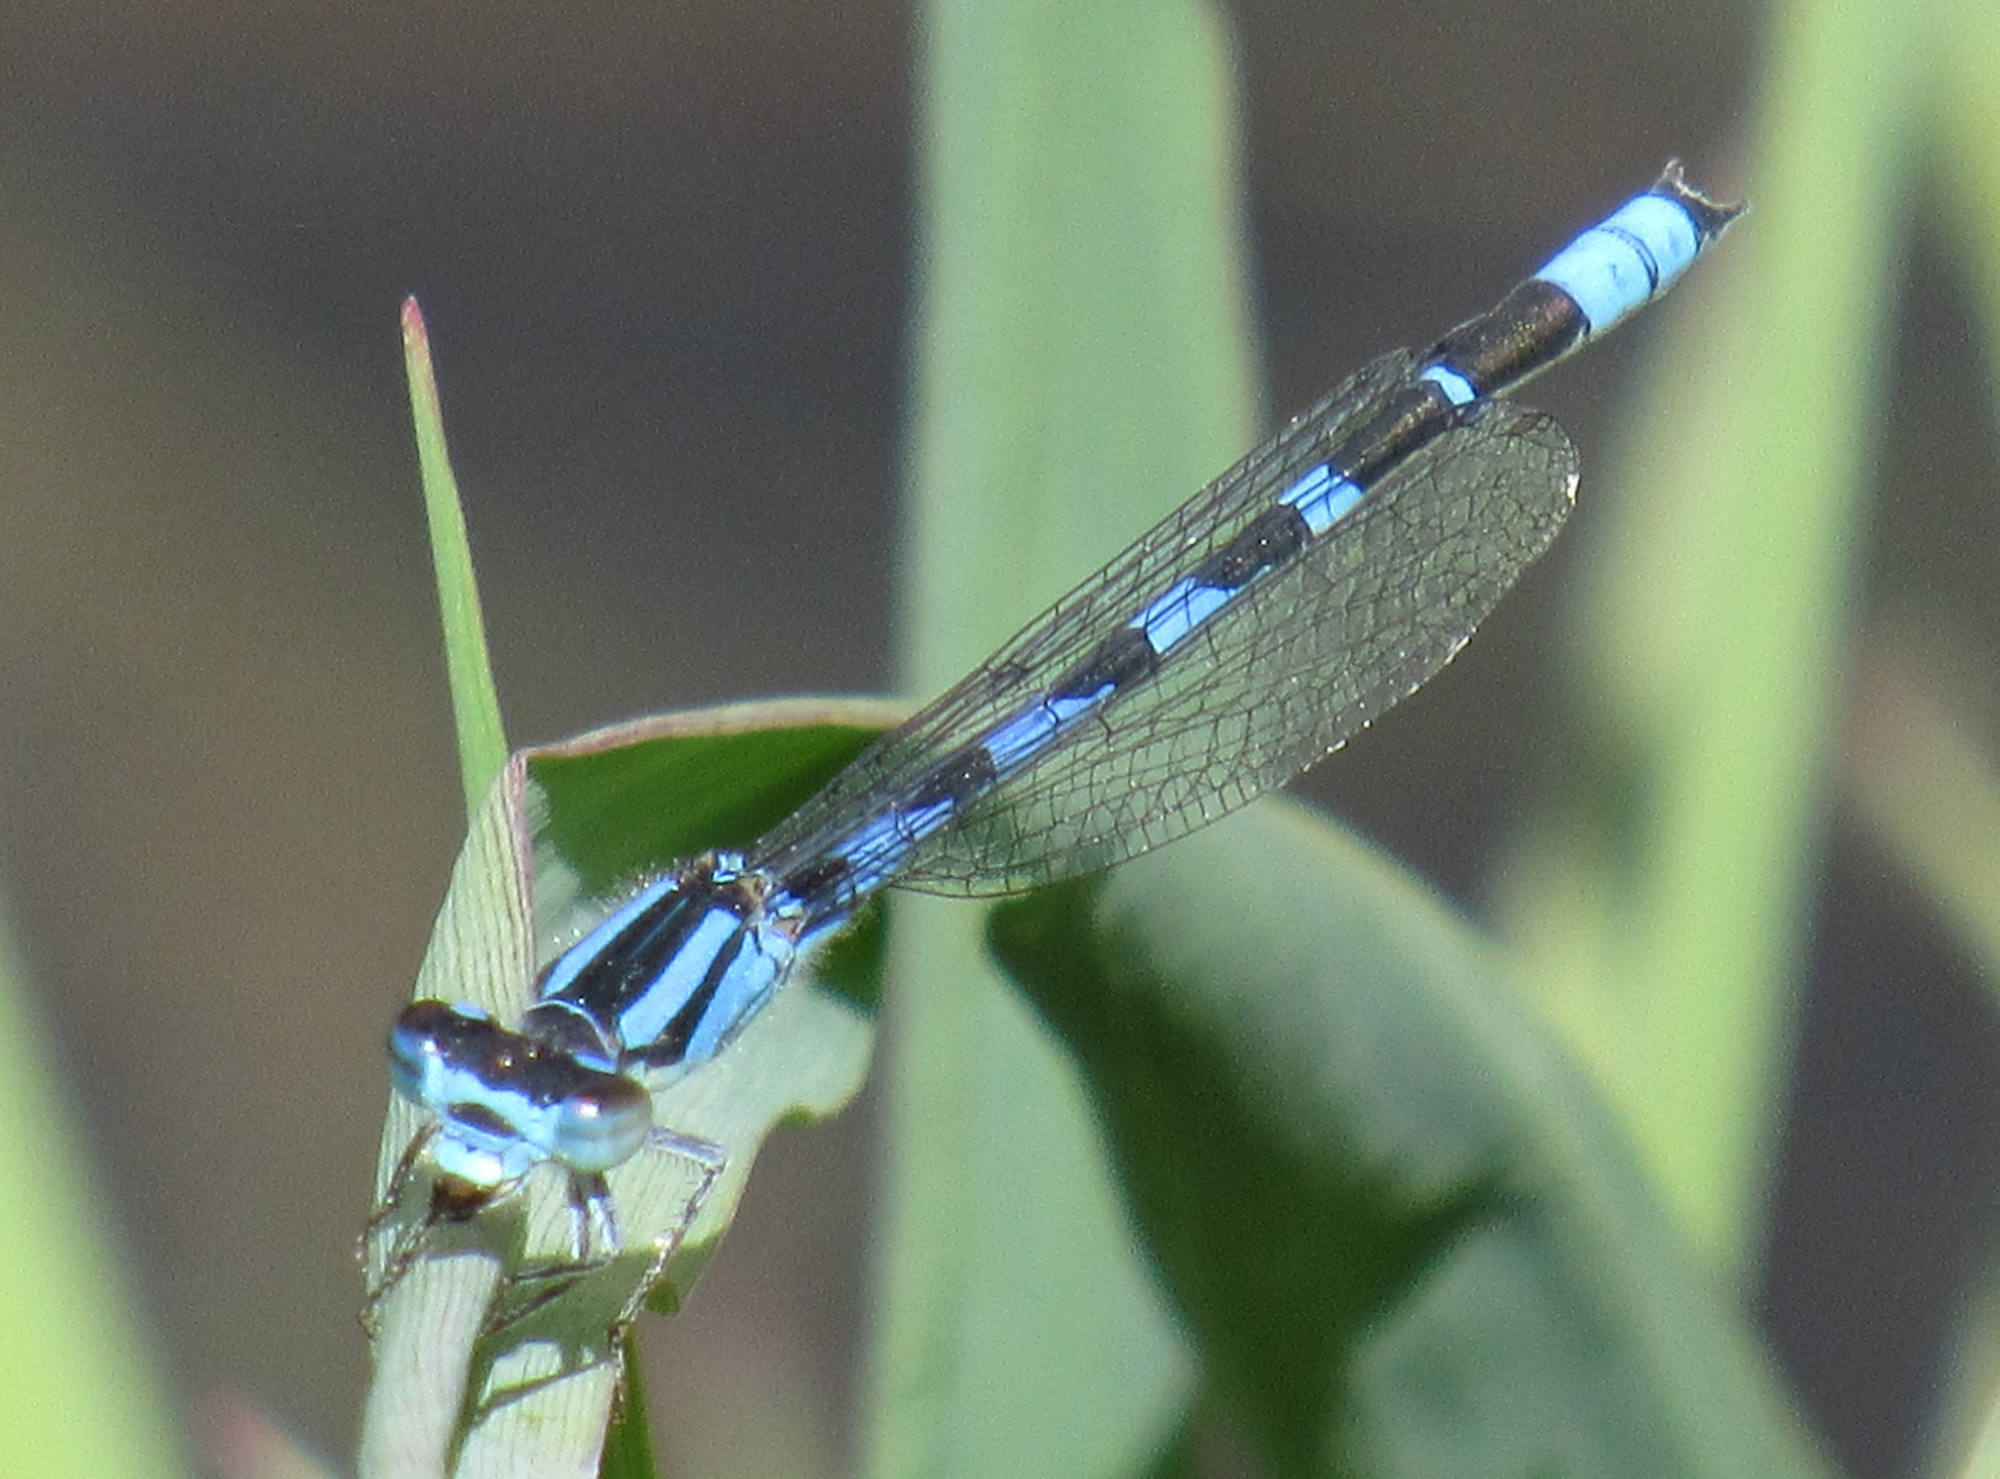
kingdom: Animalia
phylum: Arthropoda
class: Insecta
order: Odonata
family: Coenagrionidae
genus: Enallagma
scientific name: Enallagma anna
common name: River bluet
